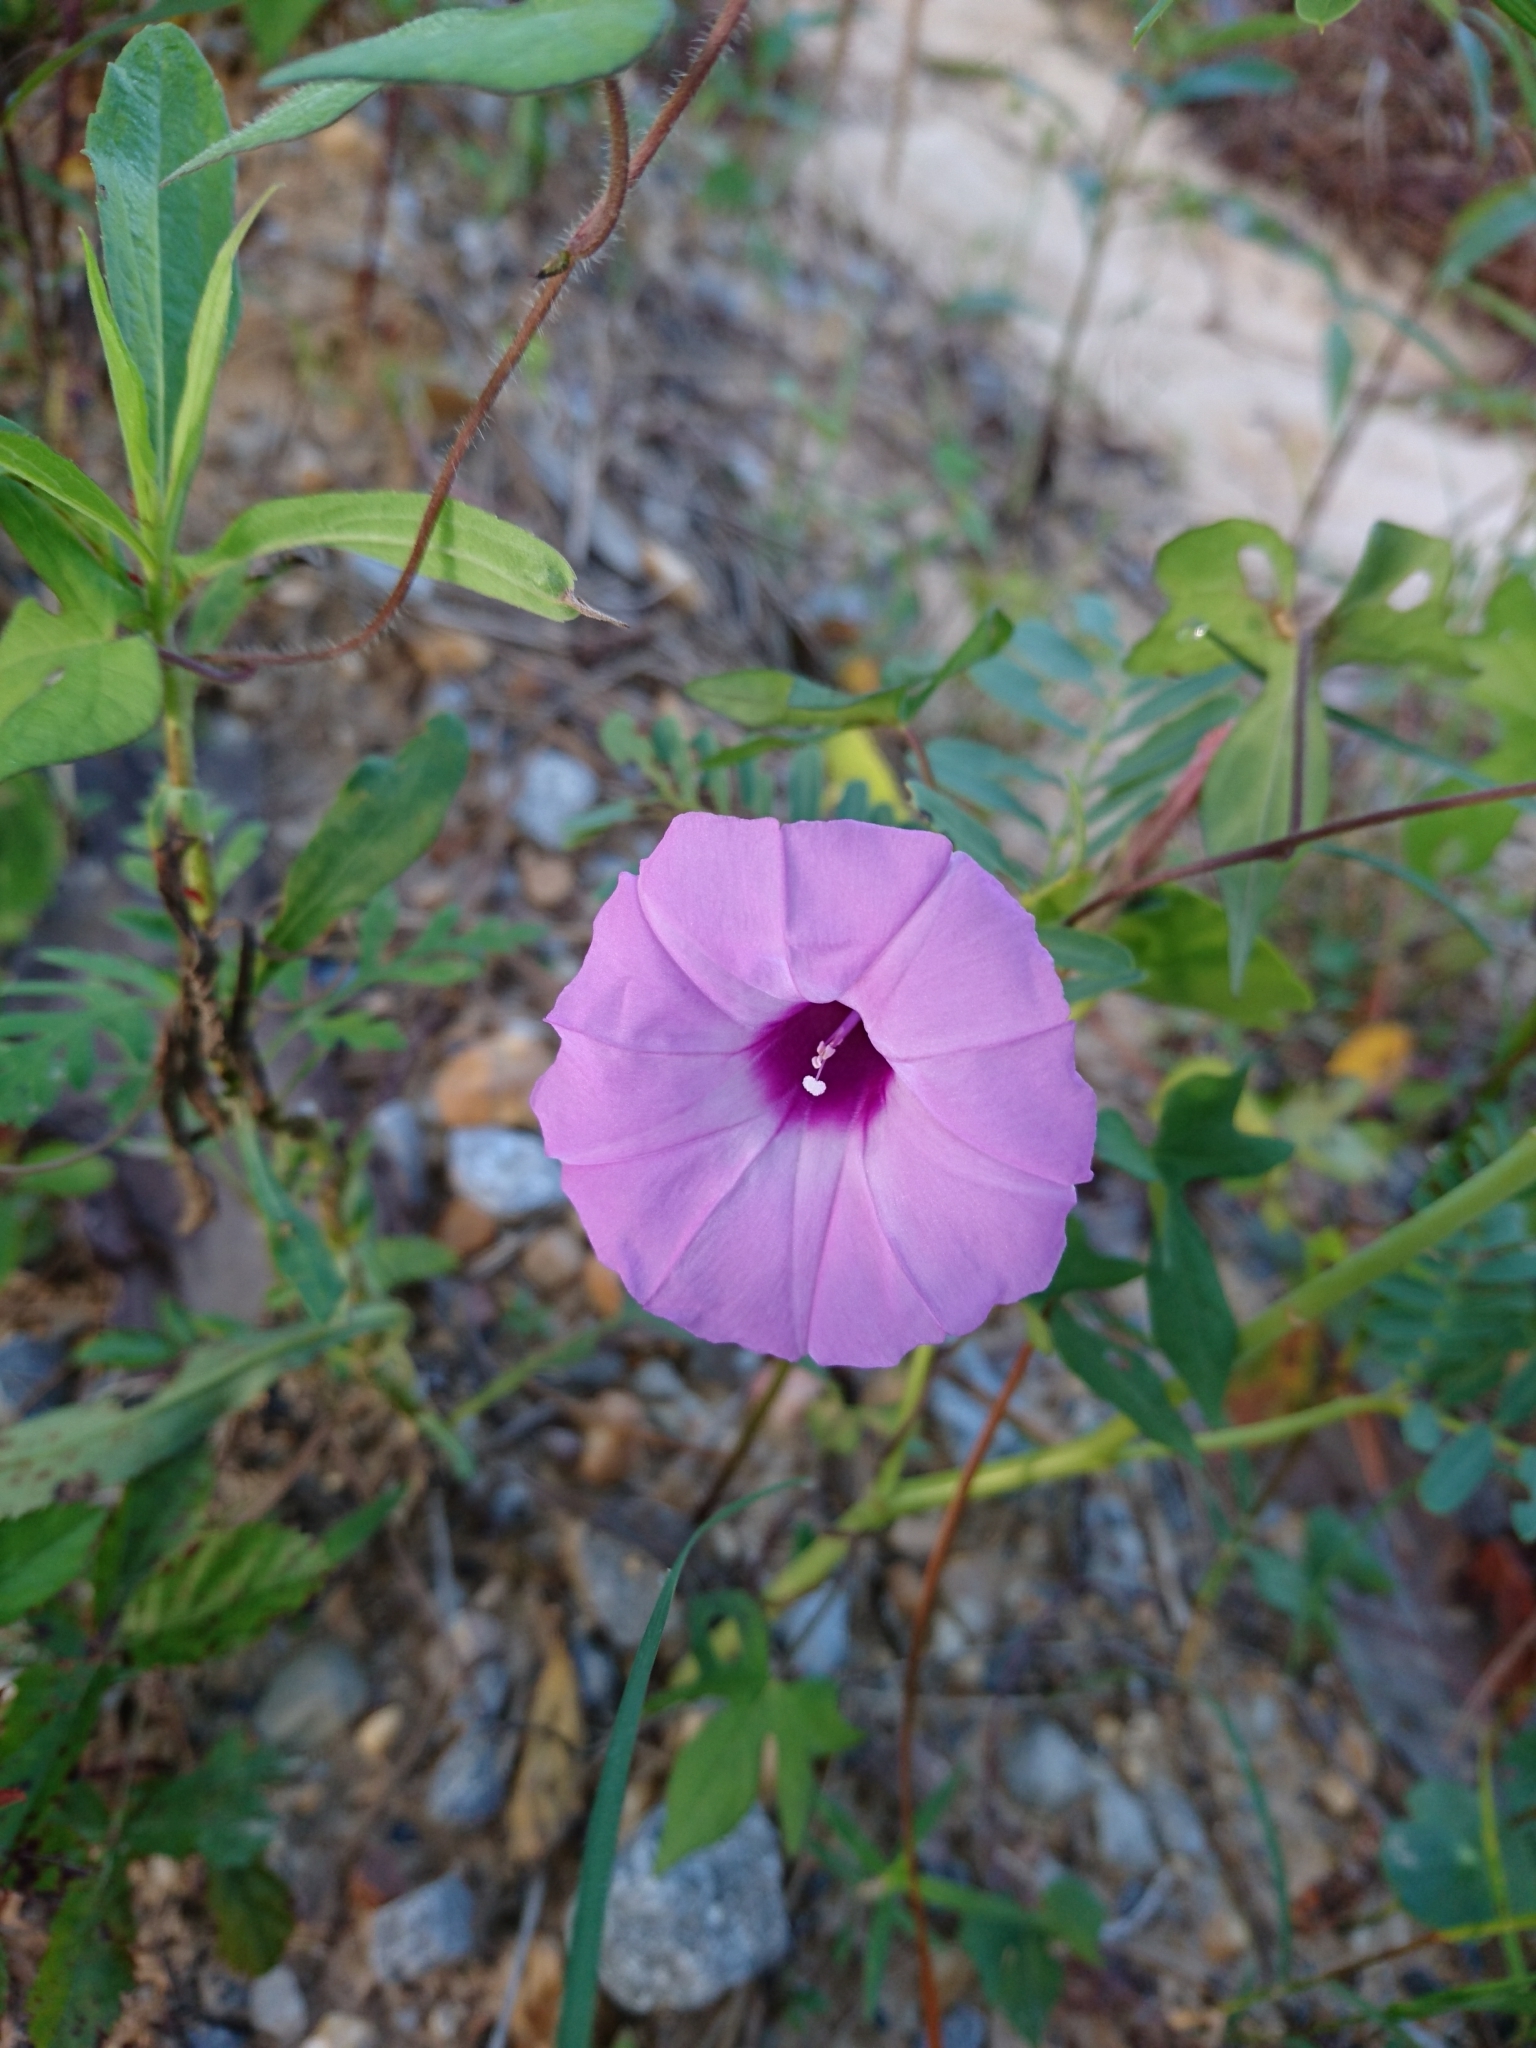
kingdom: Plantae
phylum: Tracheophyta
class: Magnoliopsida
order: Solanales
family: Convolvulaceae
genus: Ipomoea
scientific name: Ipomoea cordatotriloba
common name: Cotton morning glory
